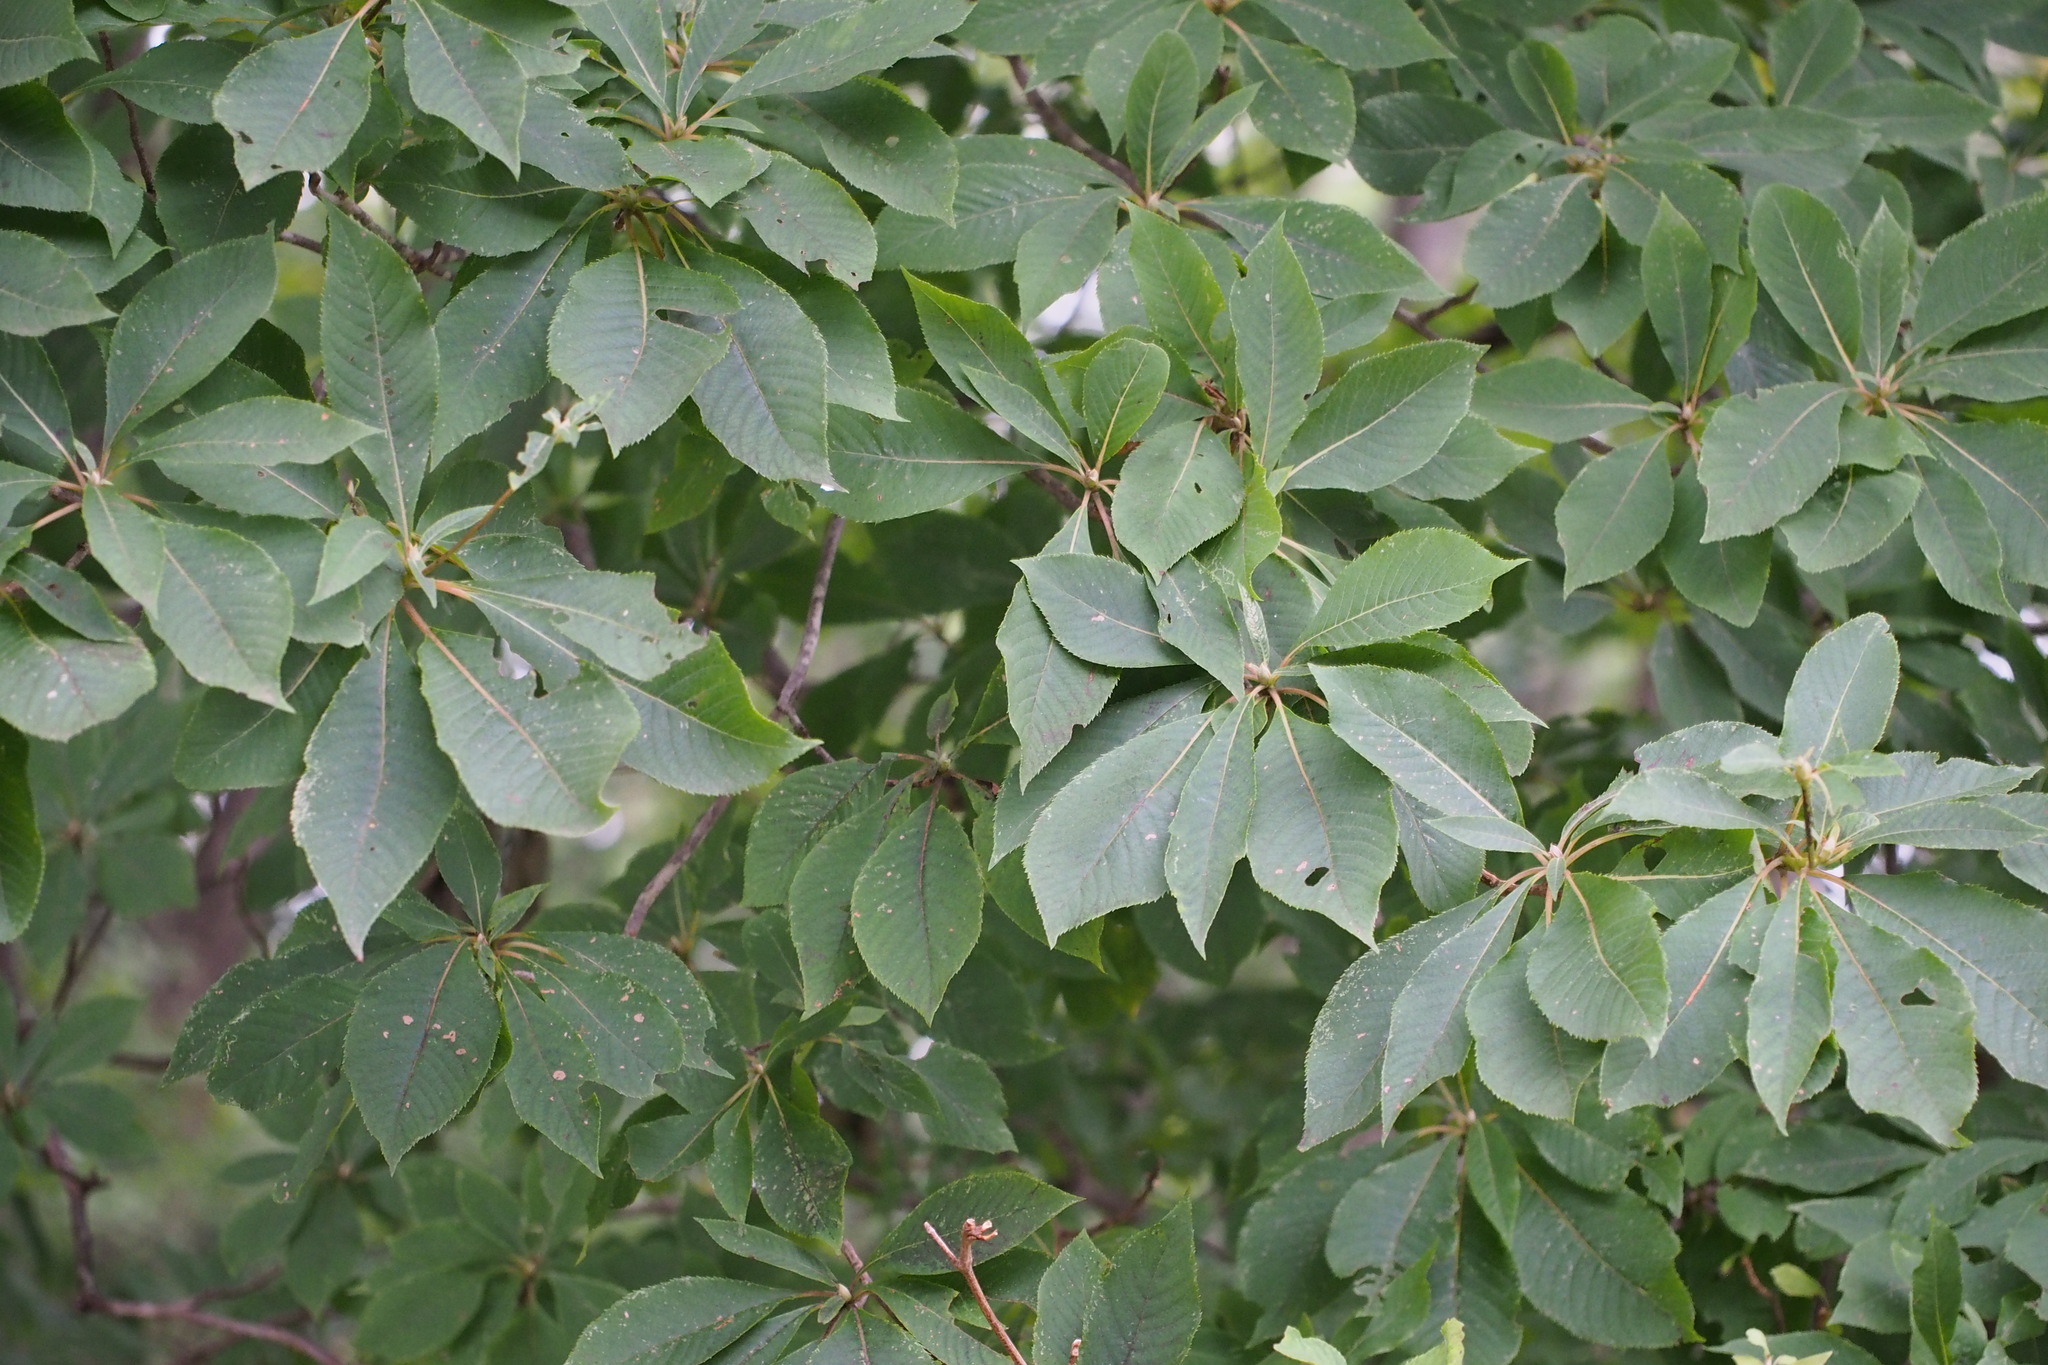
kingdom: Plantae
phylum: Tracheophyta
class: Magnoliopsida
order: Ericales
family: Clethraceae
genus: Clethra
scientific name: Clethra barbinervis
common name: Japanese clethra
